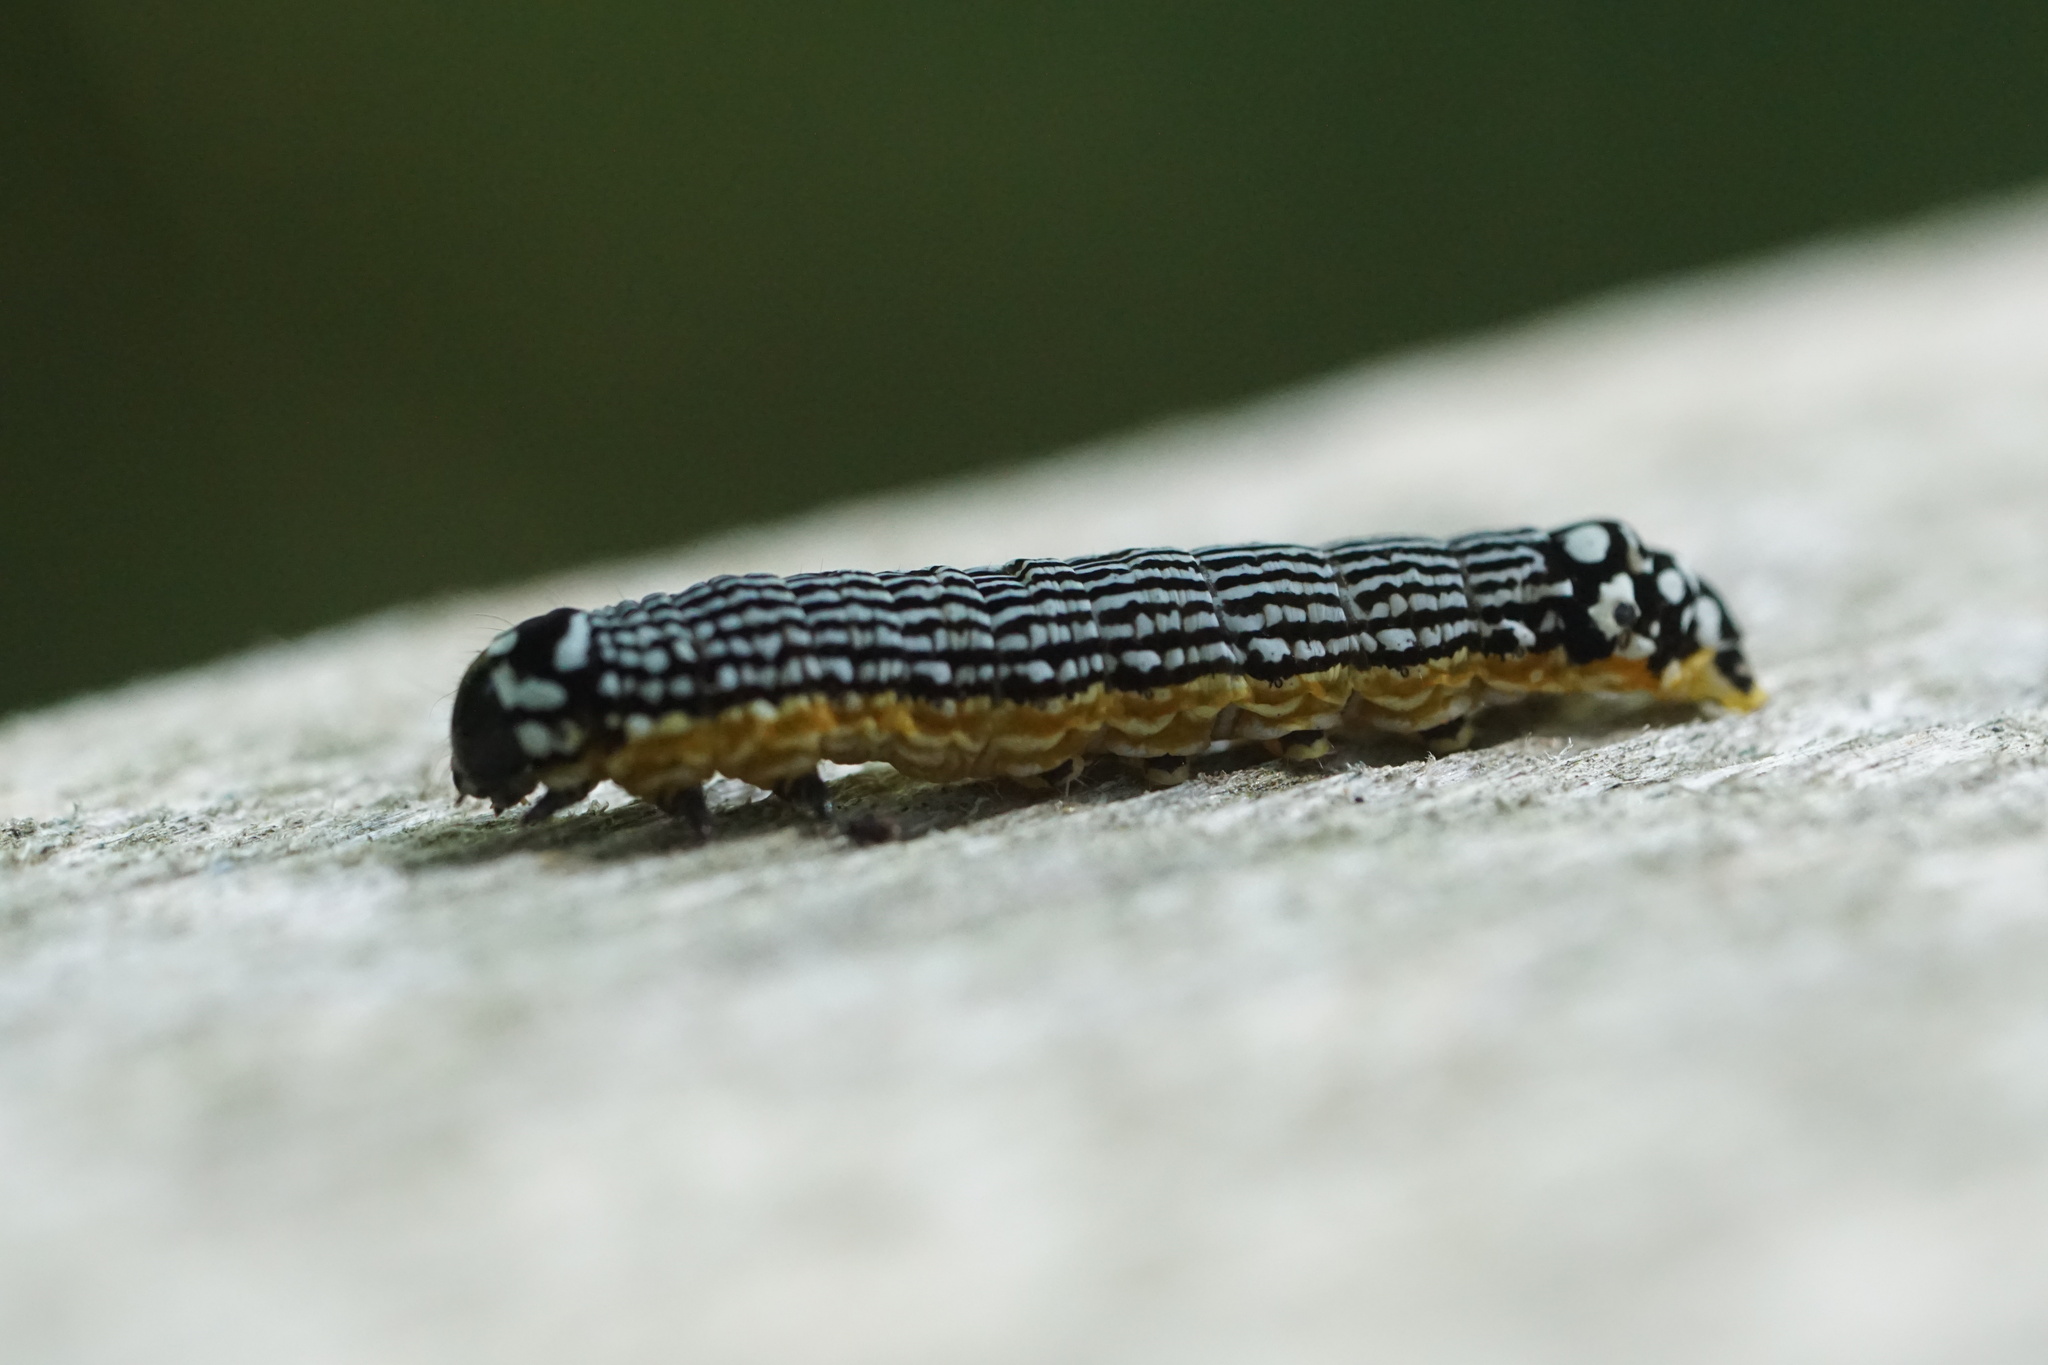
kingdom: Animalia
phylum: Arthropoda
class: Insecta
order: Lepidoptera
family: Noctuidae
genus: Phosphila
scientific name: Phosphila turbulenta
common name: Turbulent phosphila moth
